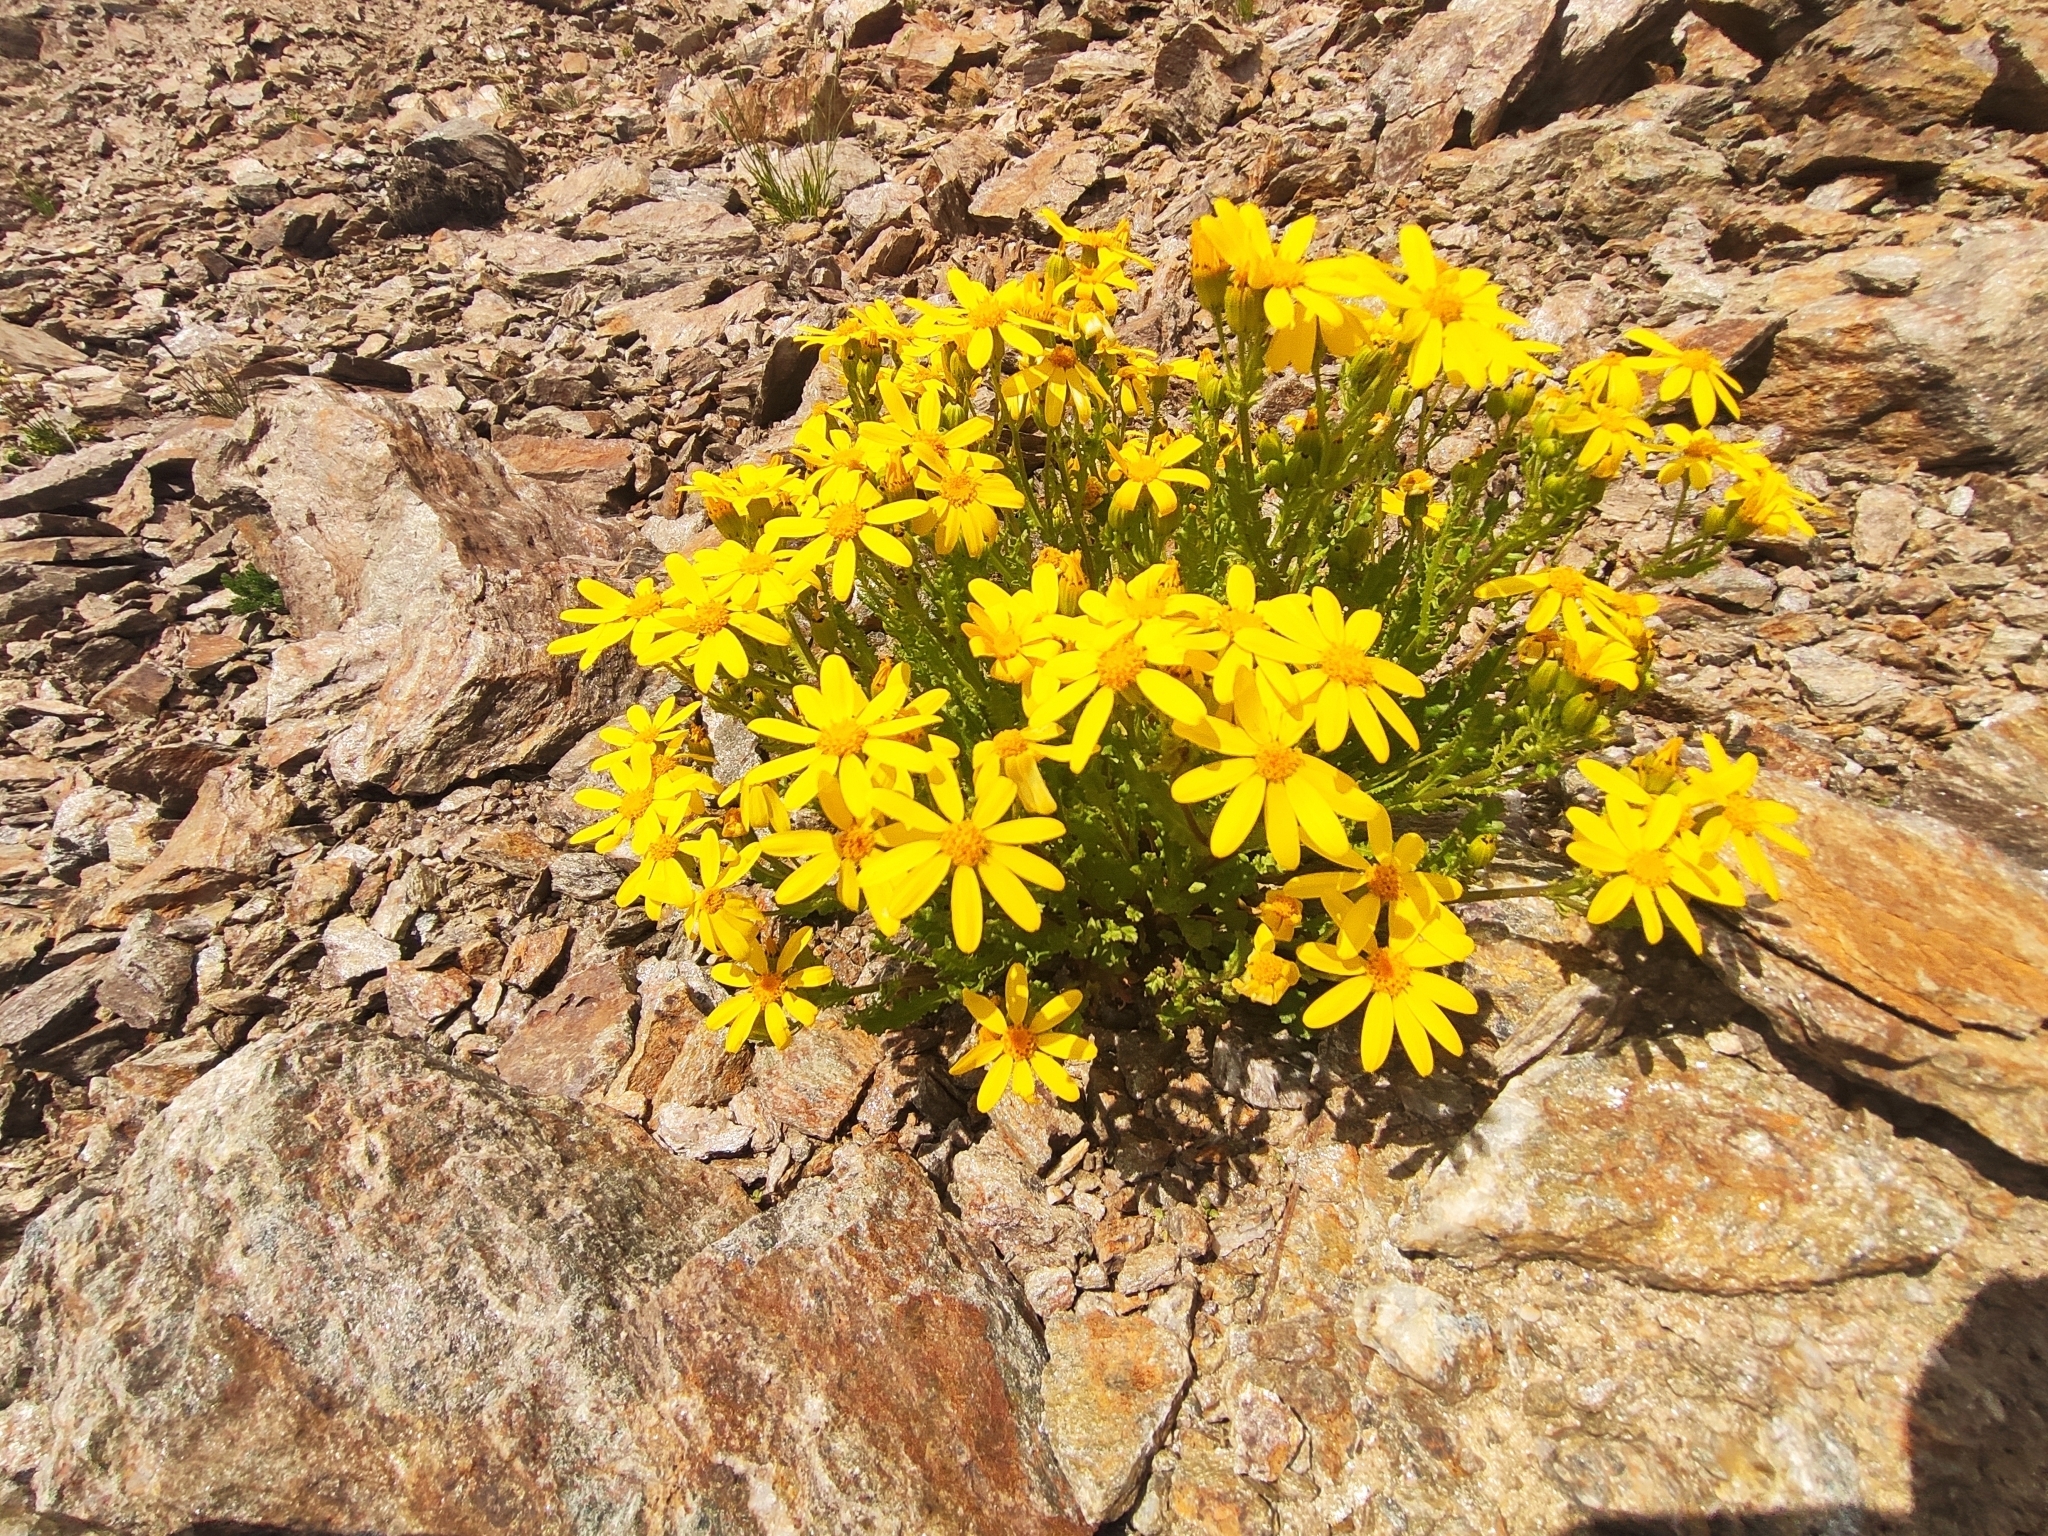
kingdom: Plantae
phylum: Tracheophyta
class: Magnoliopsida
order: Asterales
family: Asteraceae
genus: Senecio
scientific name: Senecio leucanthemifolius
